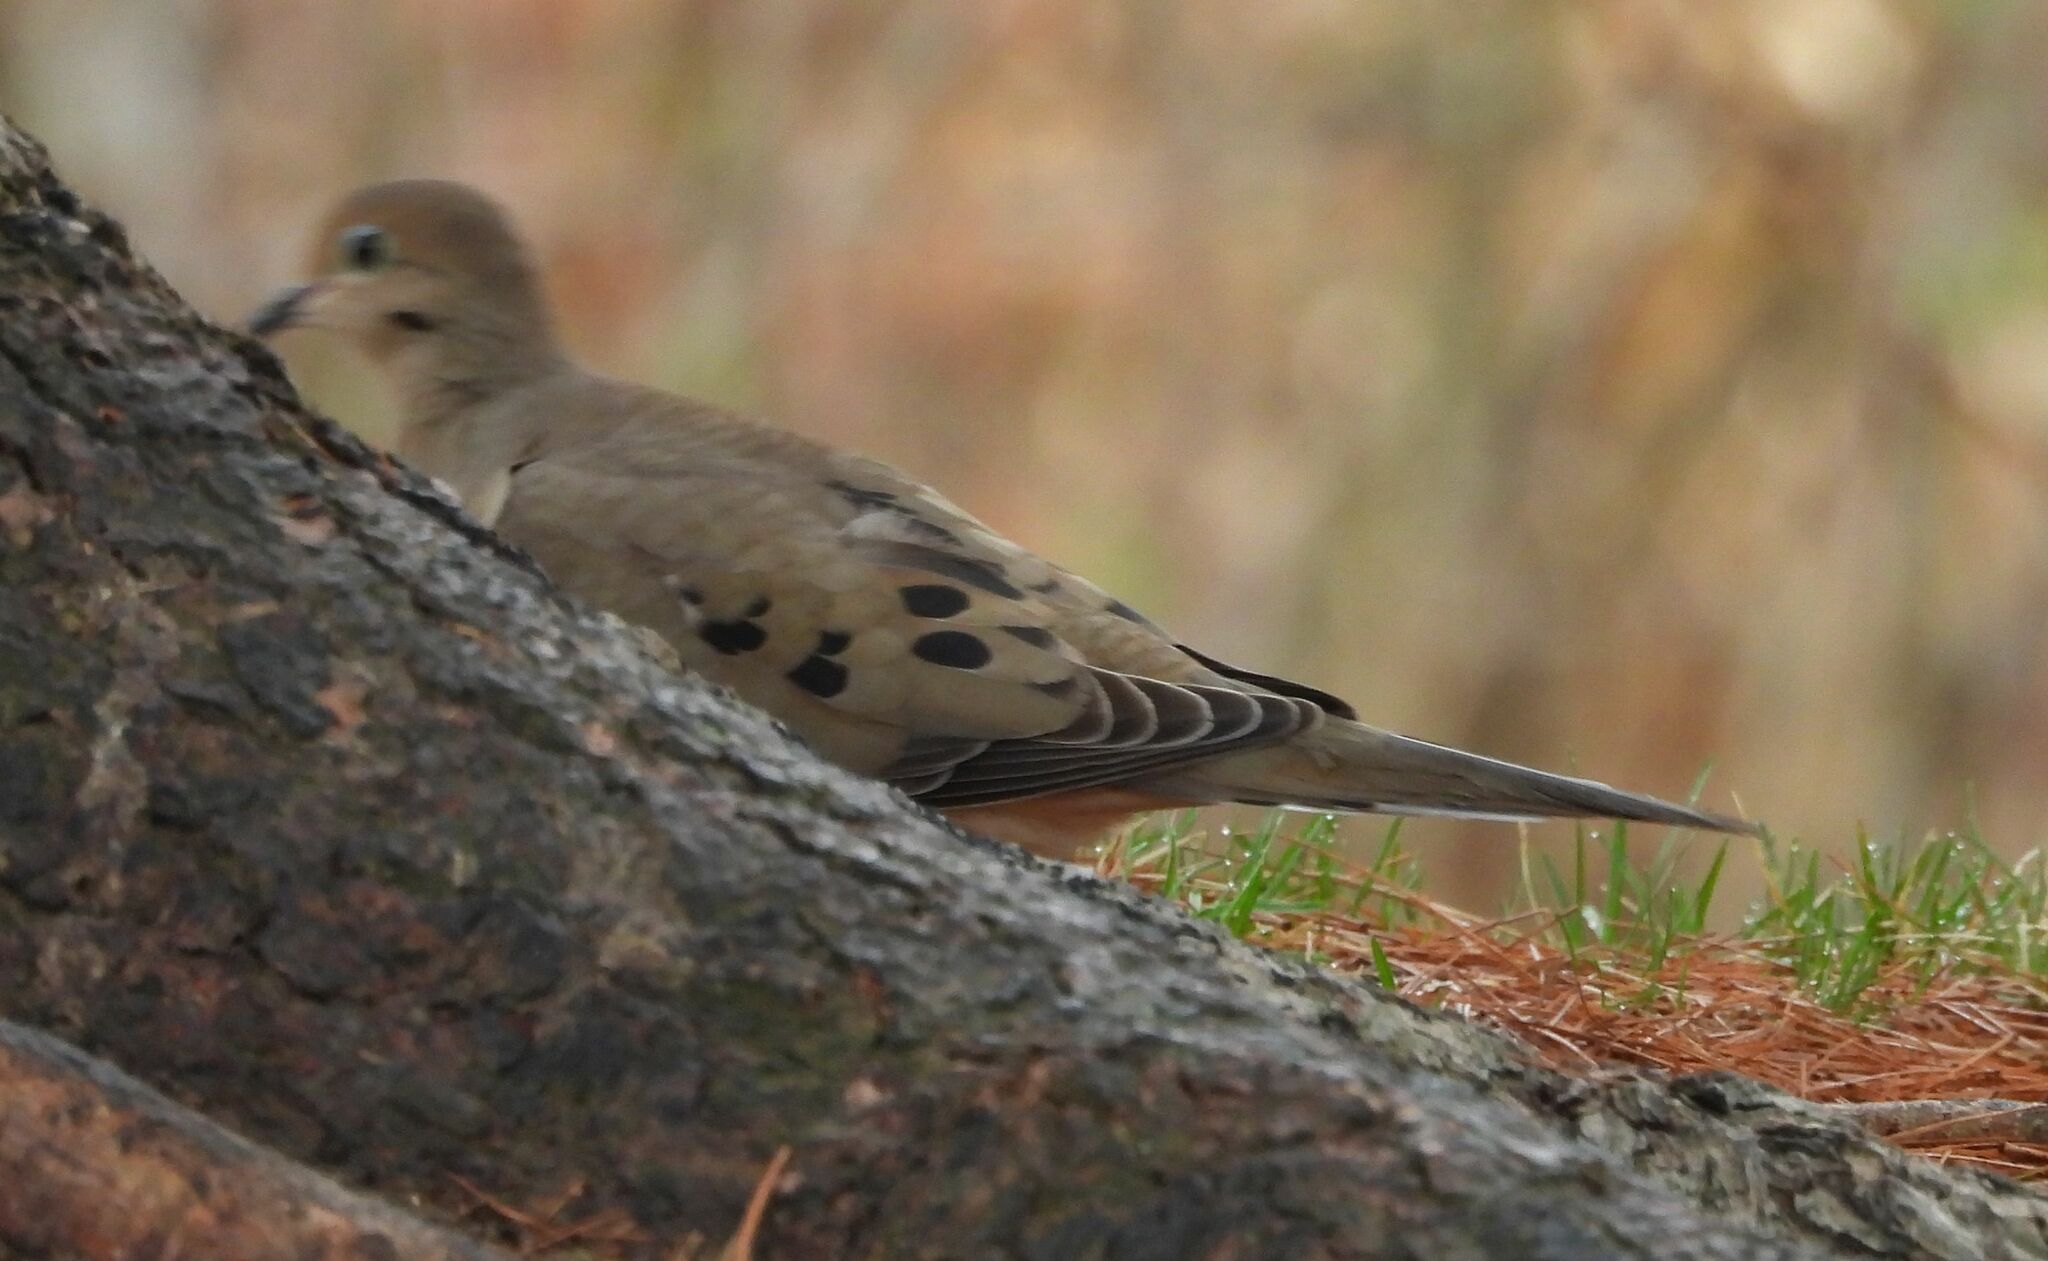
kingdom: Animalia
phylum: Chordata
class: Aves
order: Columbiformes
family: Columbidae
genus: Zenaida
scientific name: Zenaida macroura
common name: Mourning dove
